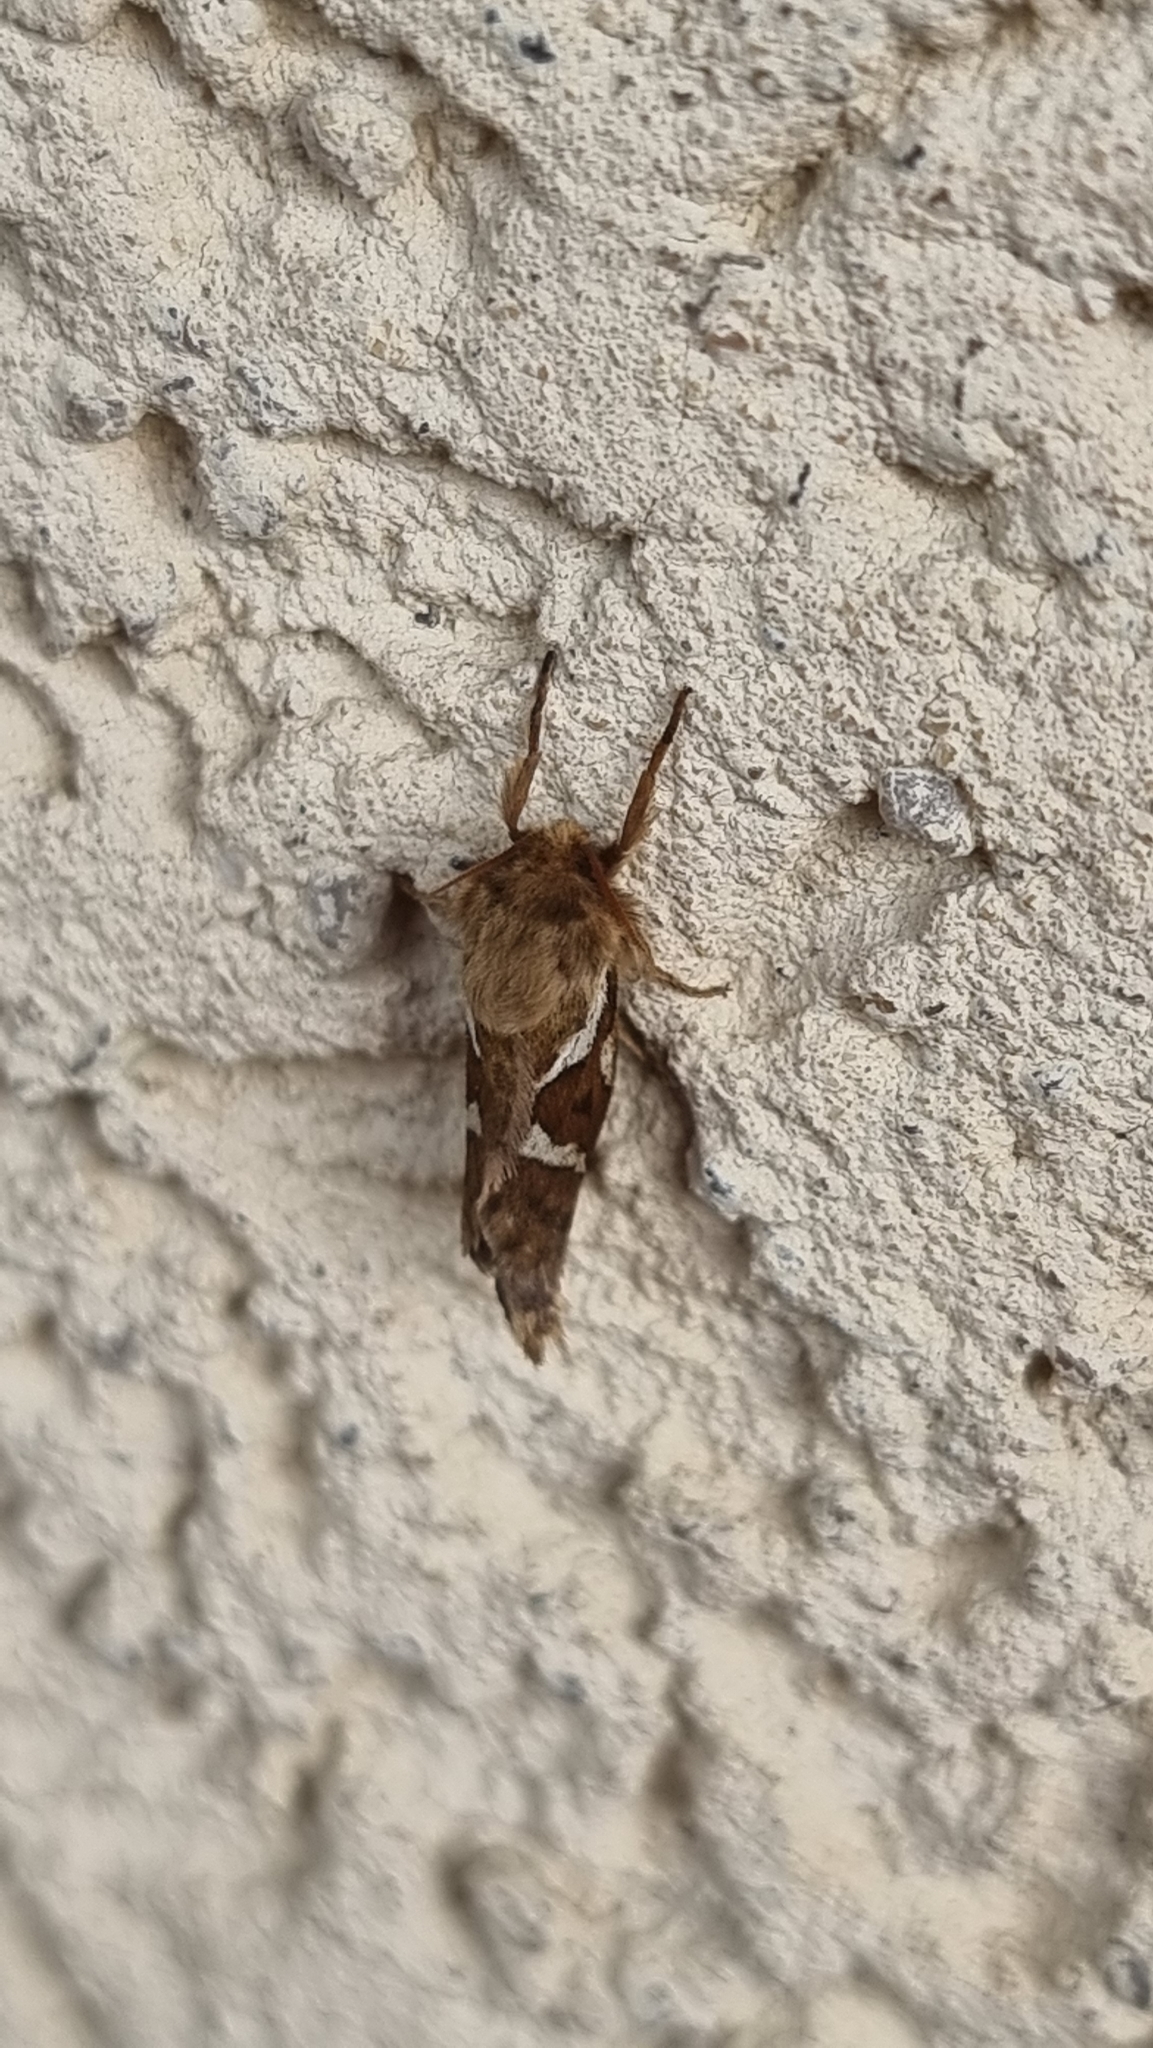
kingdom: Animalia
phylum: Arthropoda
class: Insecta
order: Lepidoptera
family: Hepialidae
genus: Korscheltellus
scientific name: Korscheltellus lupulina
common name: Common swift
